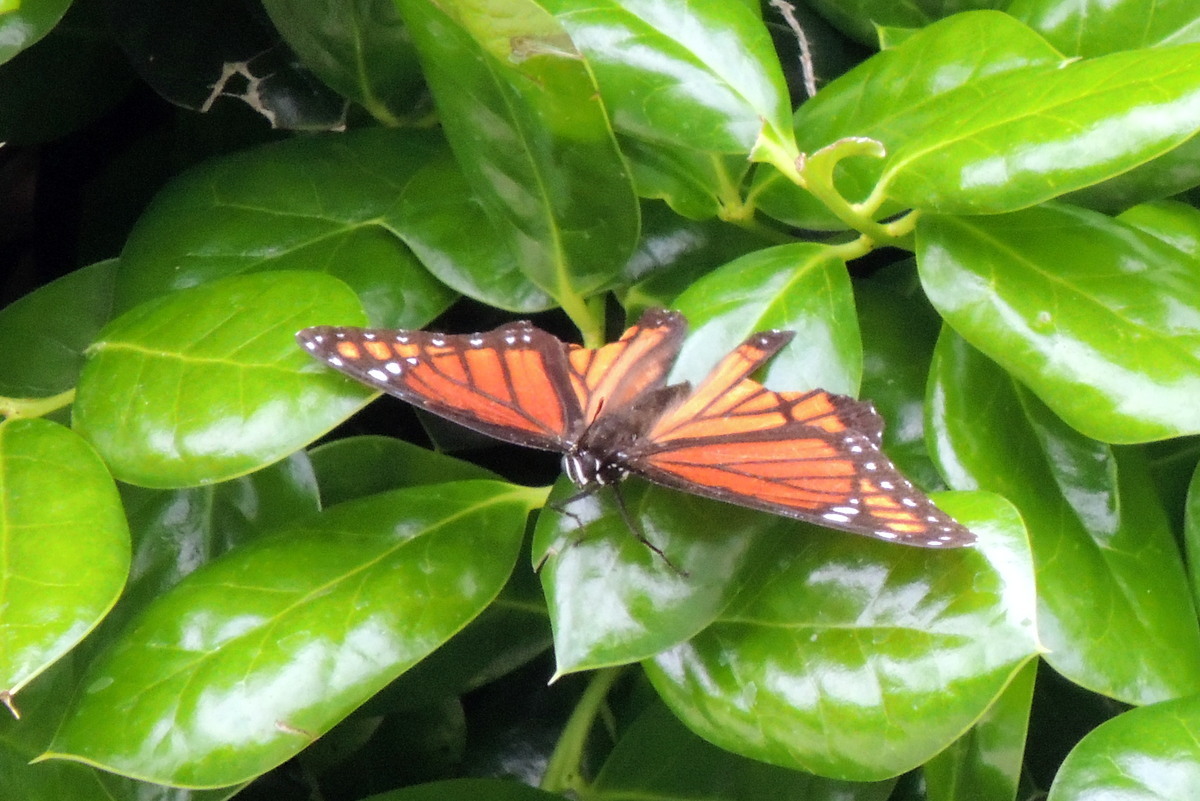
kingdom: Animalia
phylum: Arthropoda
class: Insecta
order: Lepidoptera
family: Nymphalidae
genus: Limenitis
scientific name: Limenitis archippus
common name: Viceroy
